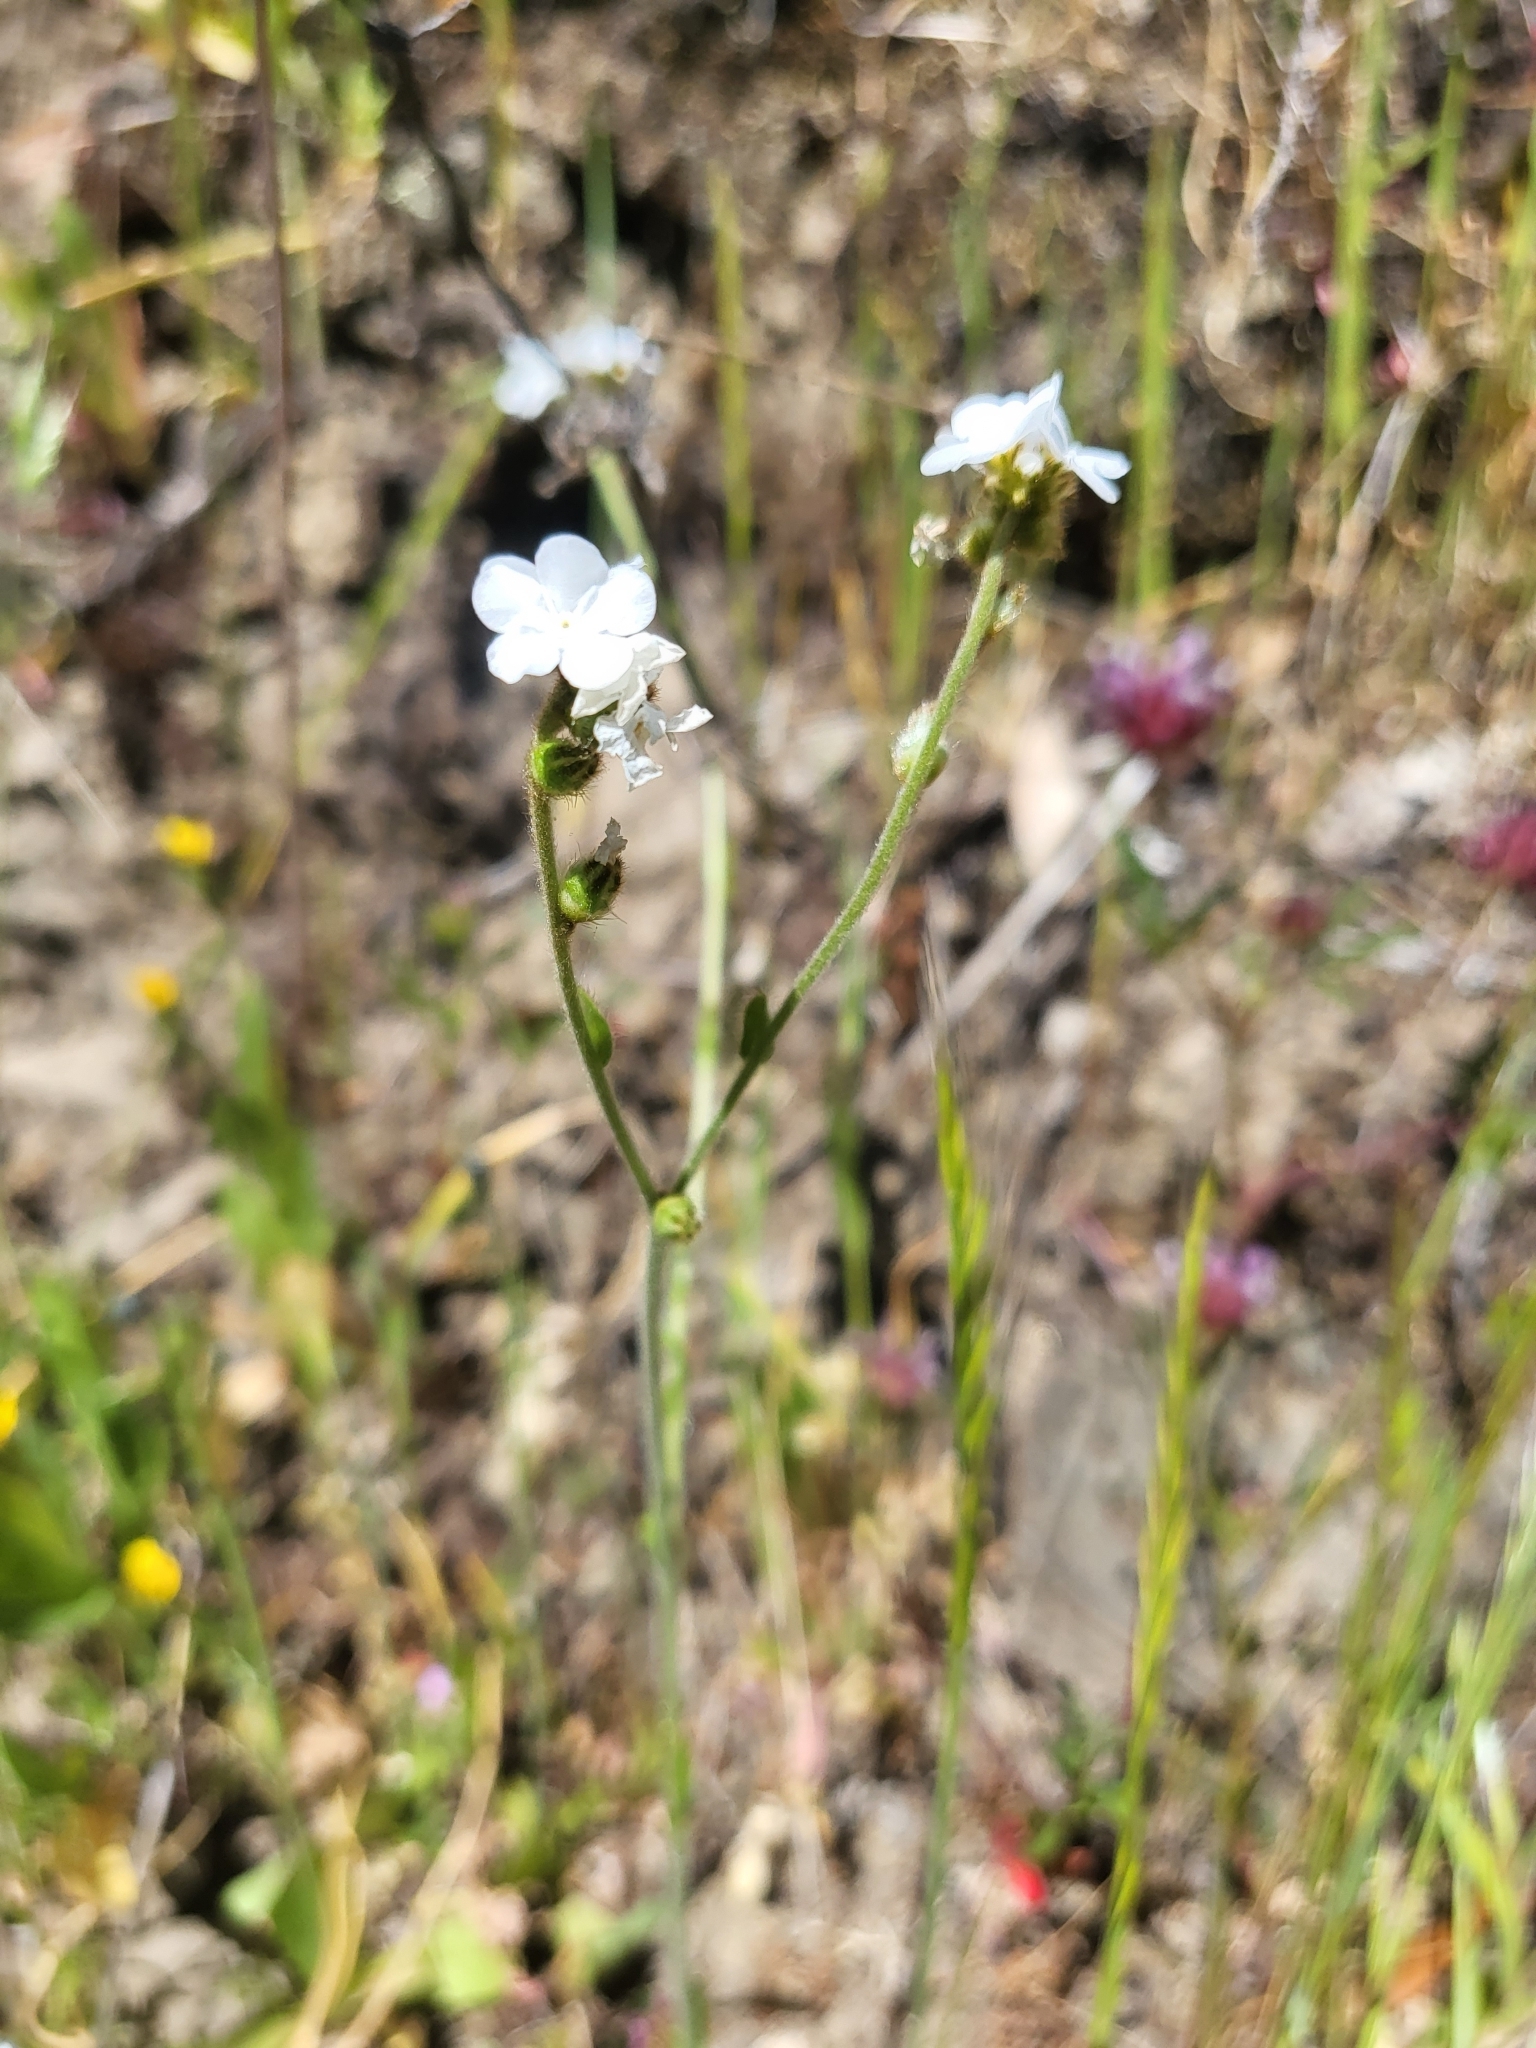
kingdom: Plantae
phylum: Tracheophyta
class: Magnoliopsida
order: Boraginales
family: Boraginaceae
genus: Plagiobothrys
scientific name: Plagiobothrys nothofulvus
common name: Popcorn-flower
